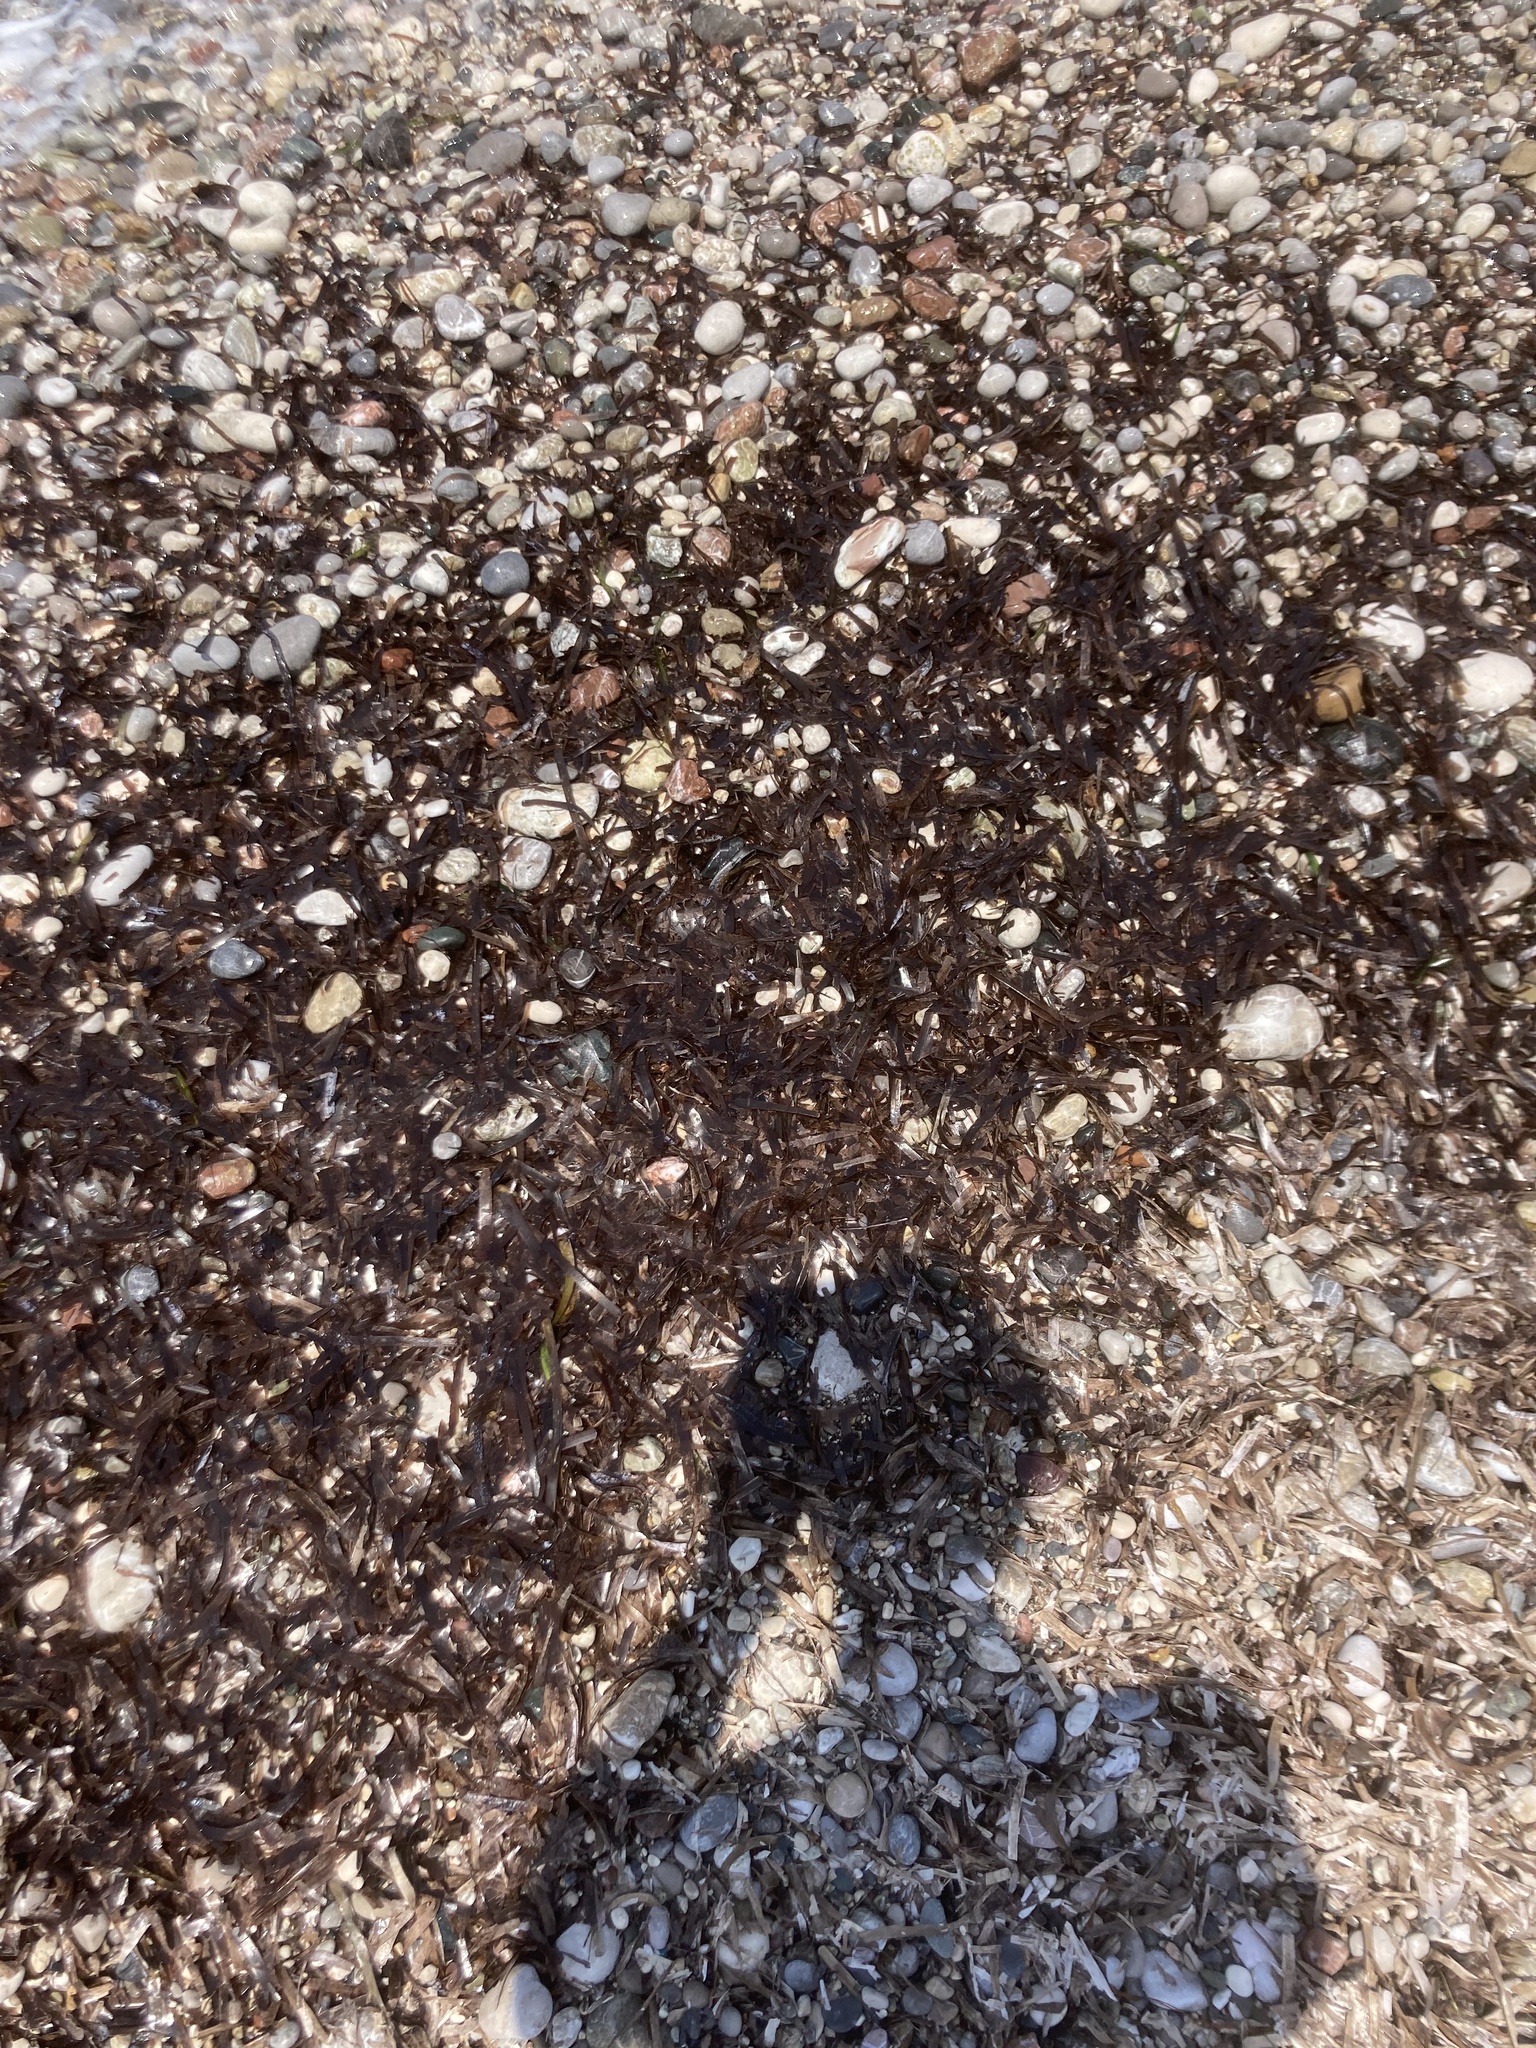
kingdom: Plantae
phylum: Tracheophyta
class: Liliopsida
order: Alismatales
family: Posidoniaceae
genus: Posidonia
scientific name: Posidonia oceanica
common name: Mediterranean tapeweed
